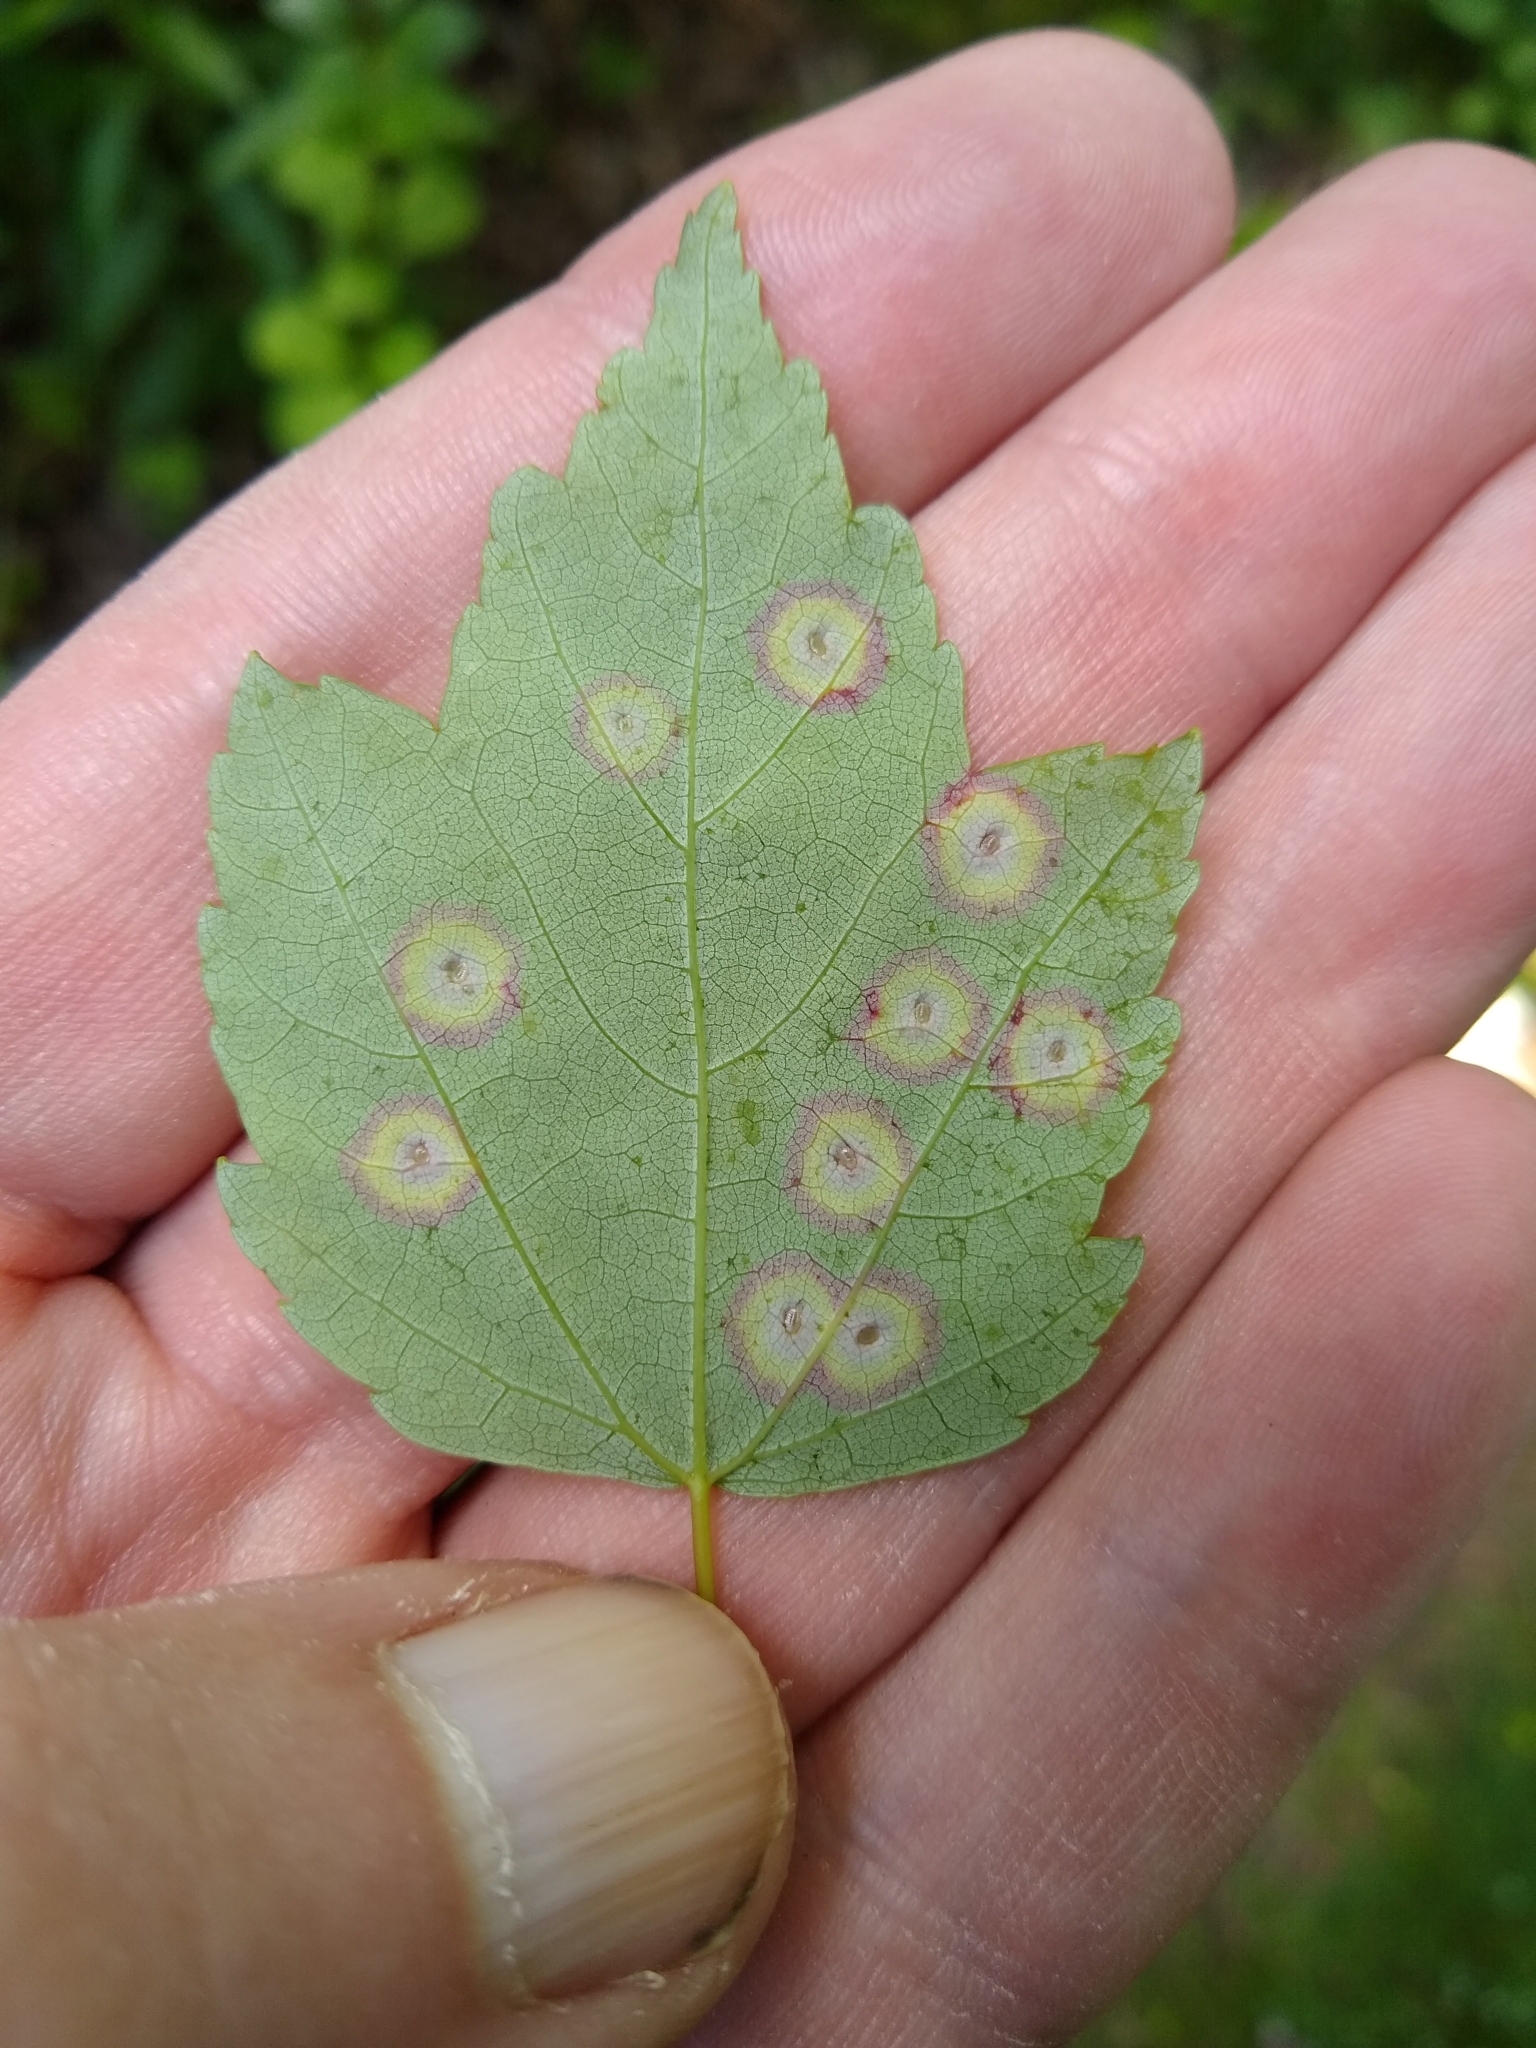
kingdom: Animalia
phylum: Arthropoda
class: Insecta
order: Diptera
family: Cecidomyiidae
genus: Acericecis
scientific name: Acericecis ocellaris
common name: Ocellate gall midge
